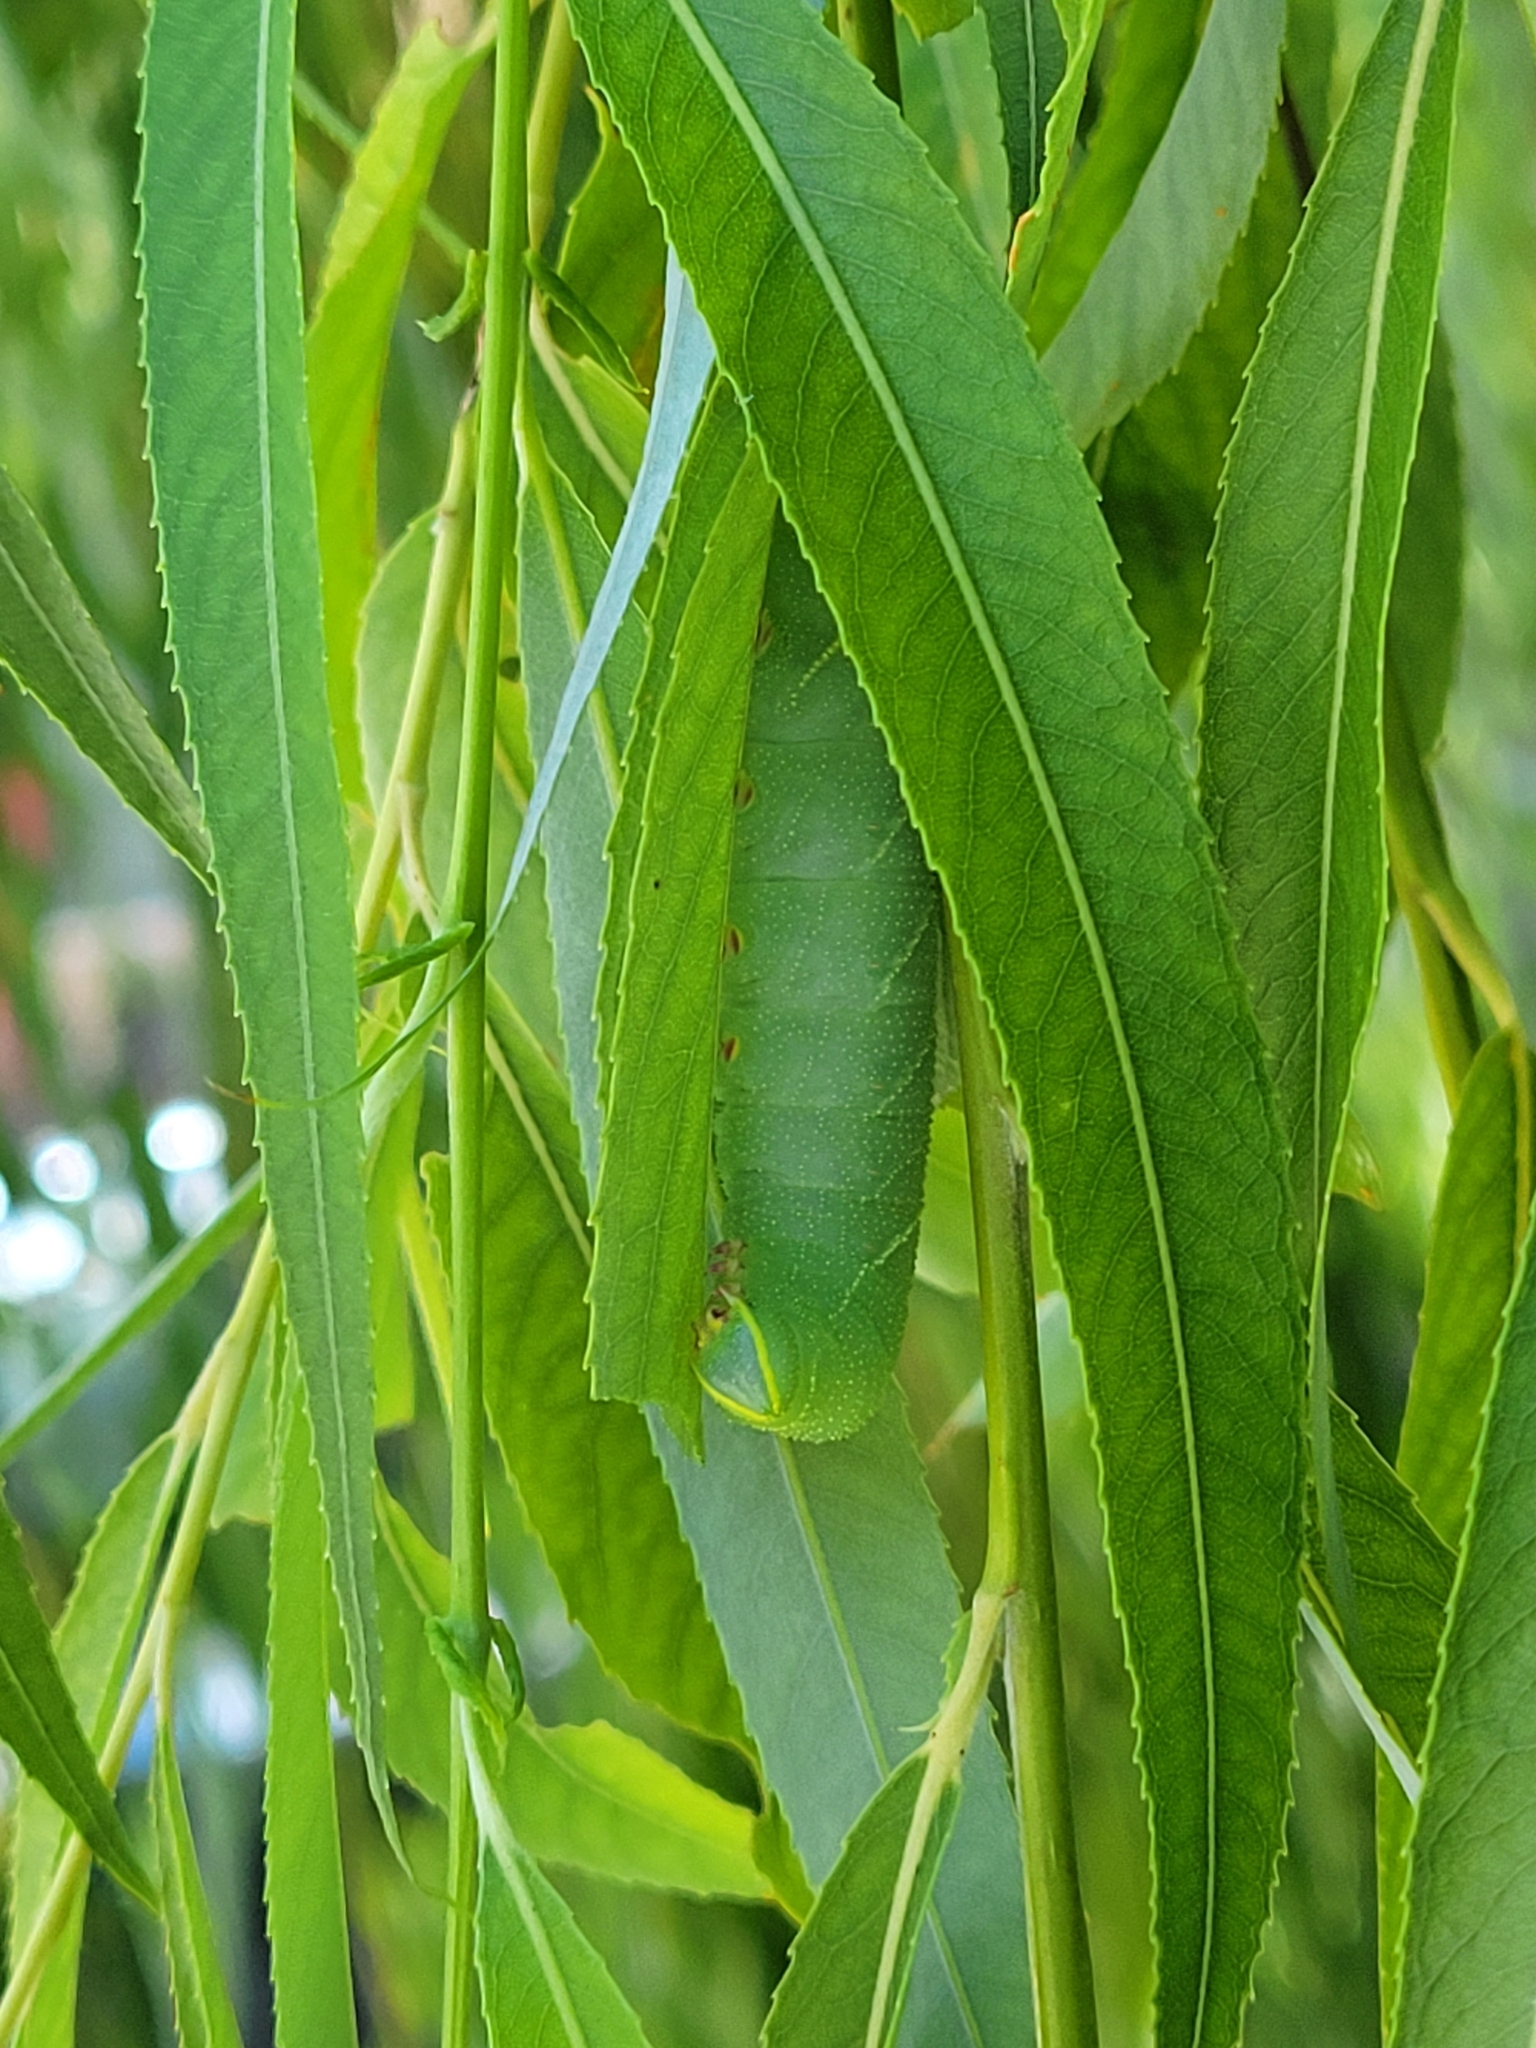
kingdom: Animalia
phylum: Arthropoda
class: Insecta
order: Lepidoptera
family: Sphingidae
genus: Laothoe
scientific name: Laothoe populi
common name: Poplar hawk-moth
